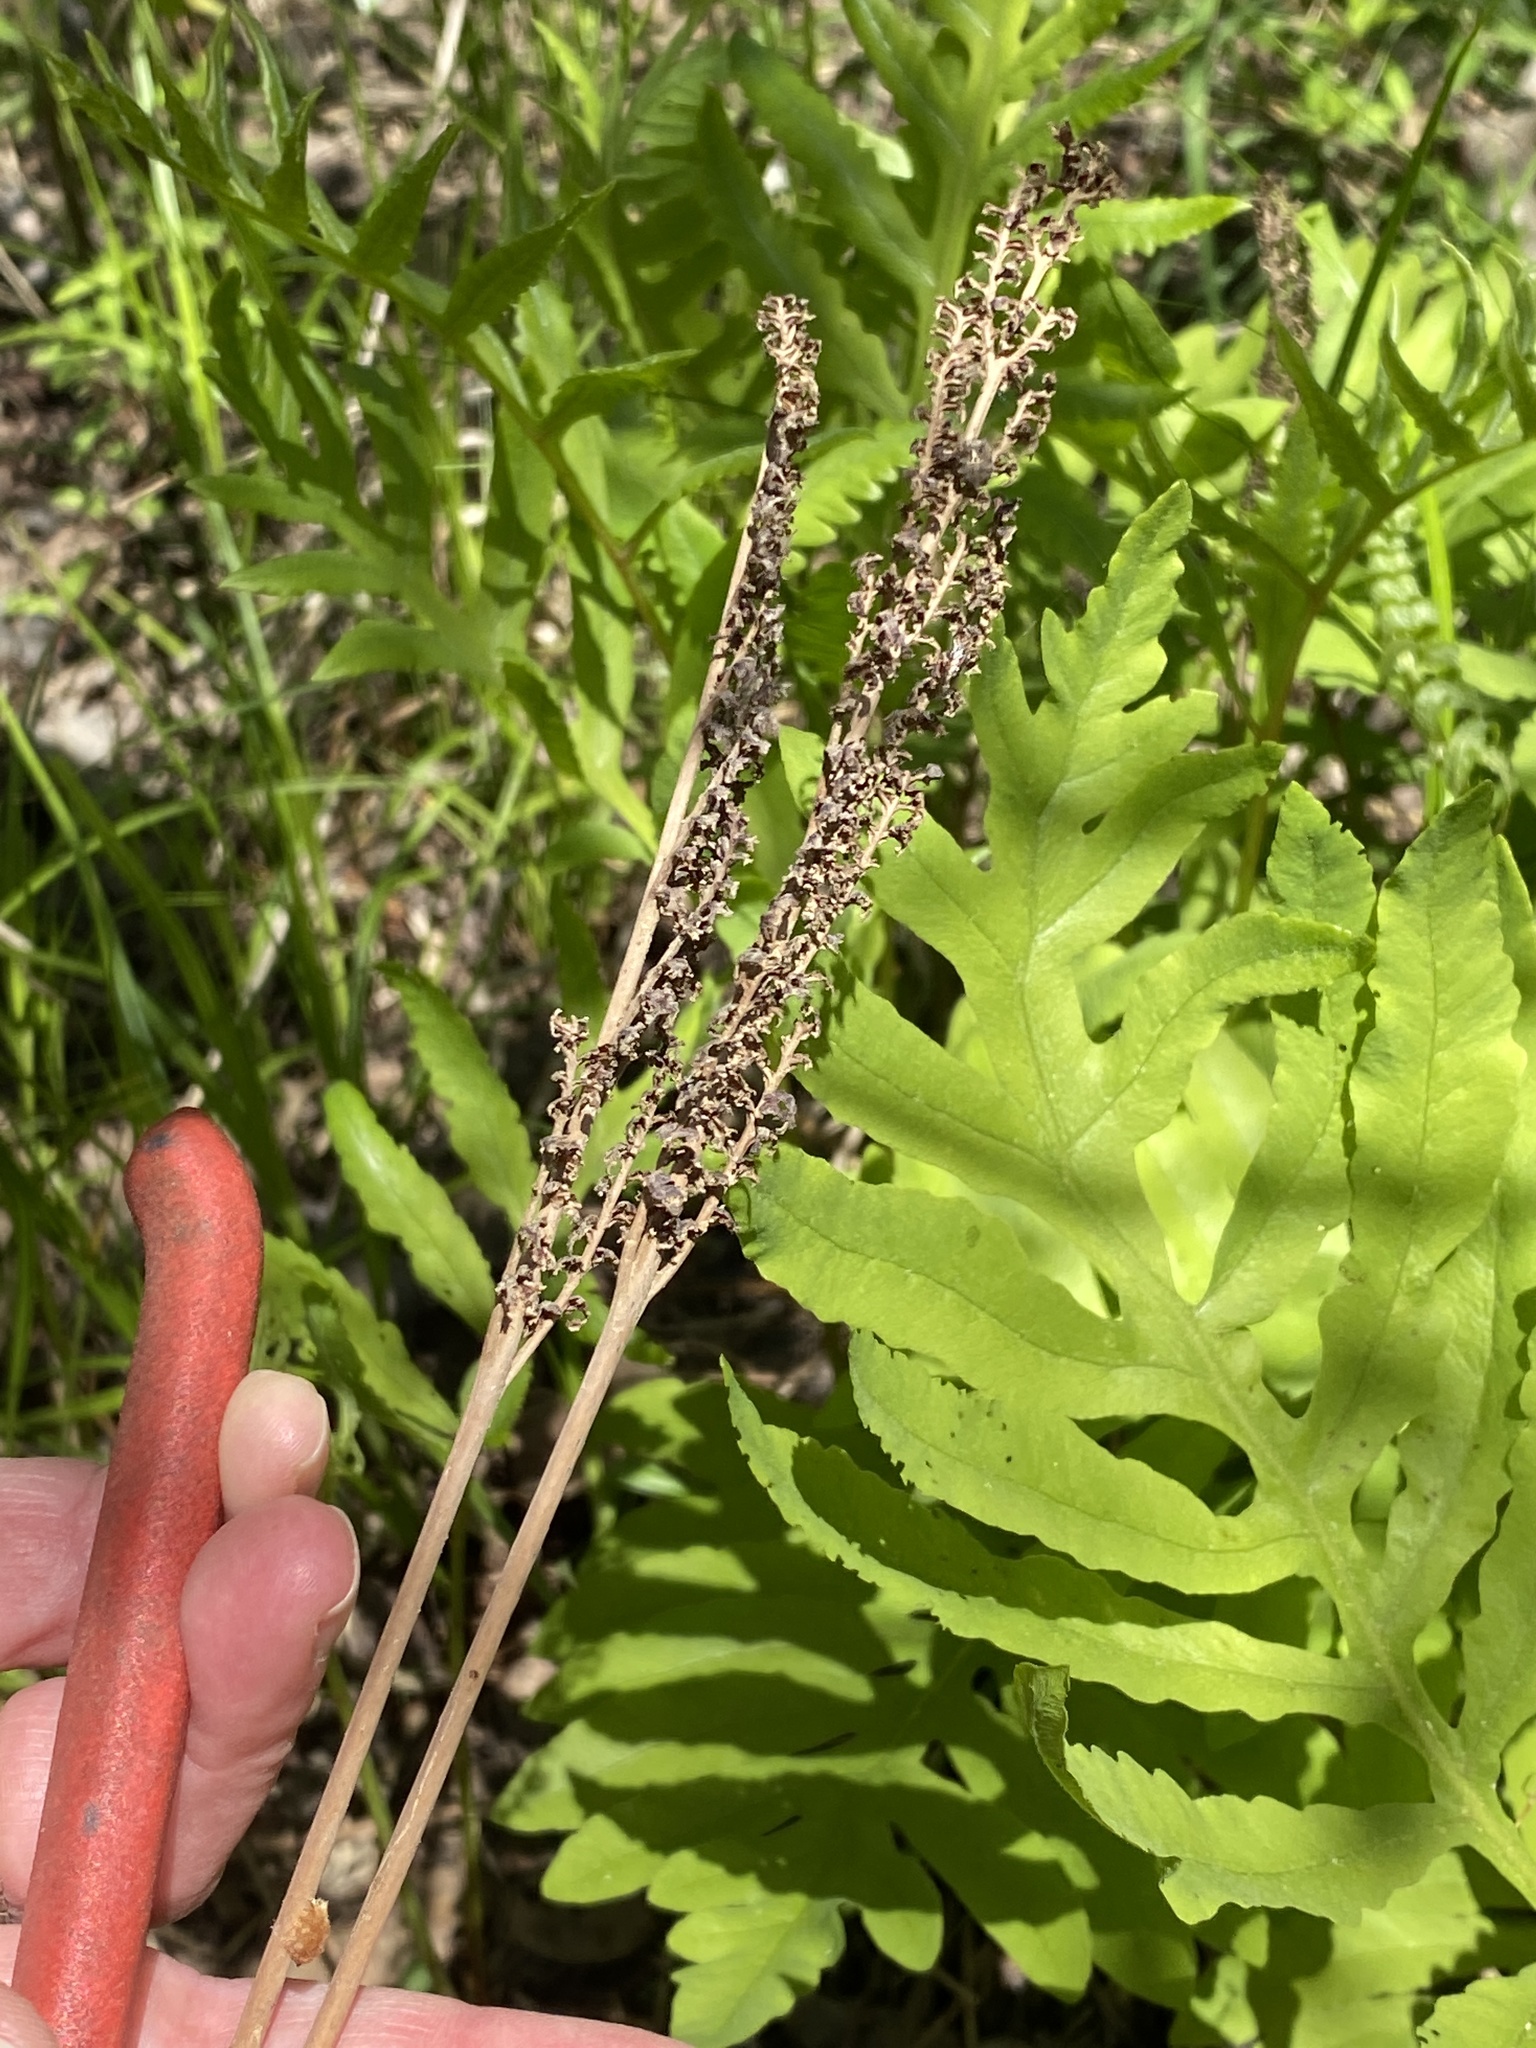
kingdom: Plantae
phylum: Tracheophyta
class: Polypodiopsida
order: Polypodiales
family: Onocleaceae
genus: Onoclea
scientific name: Onoclea sensibilis
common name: Sensitive fern
